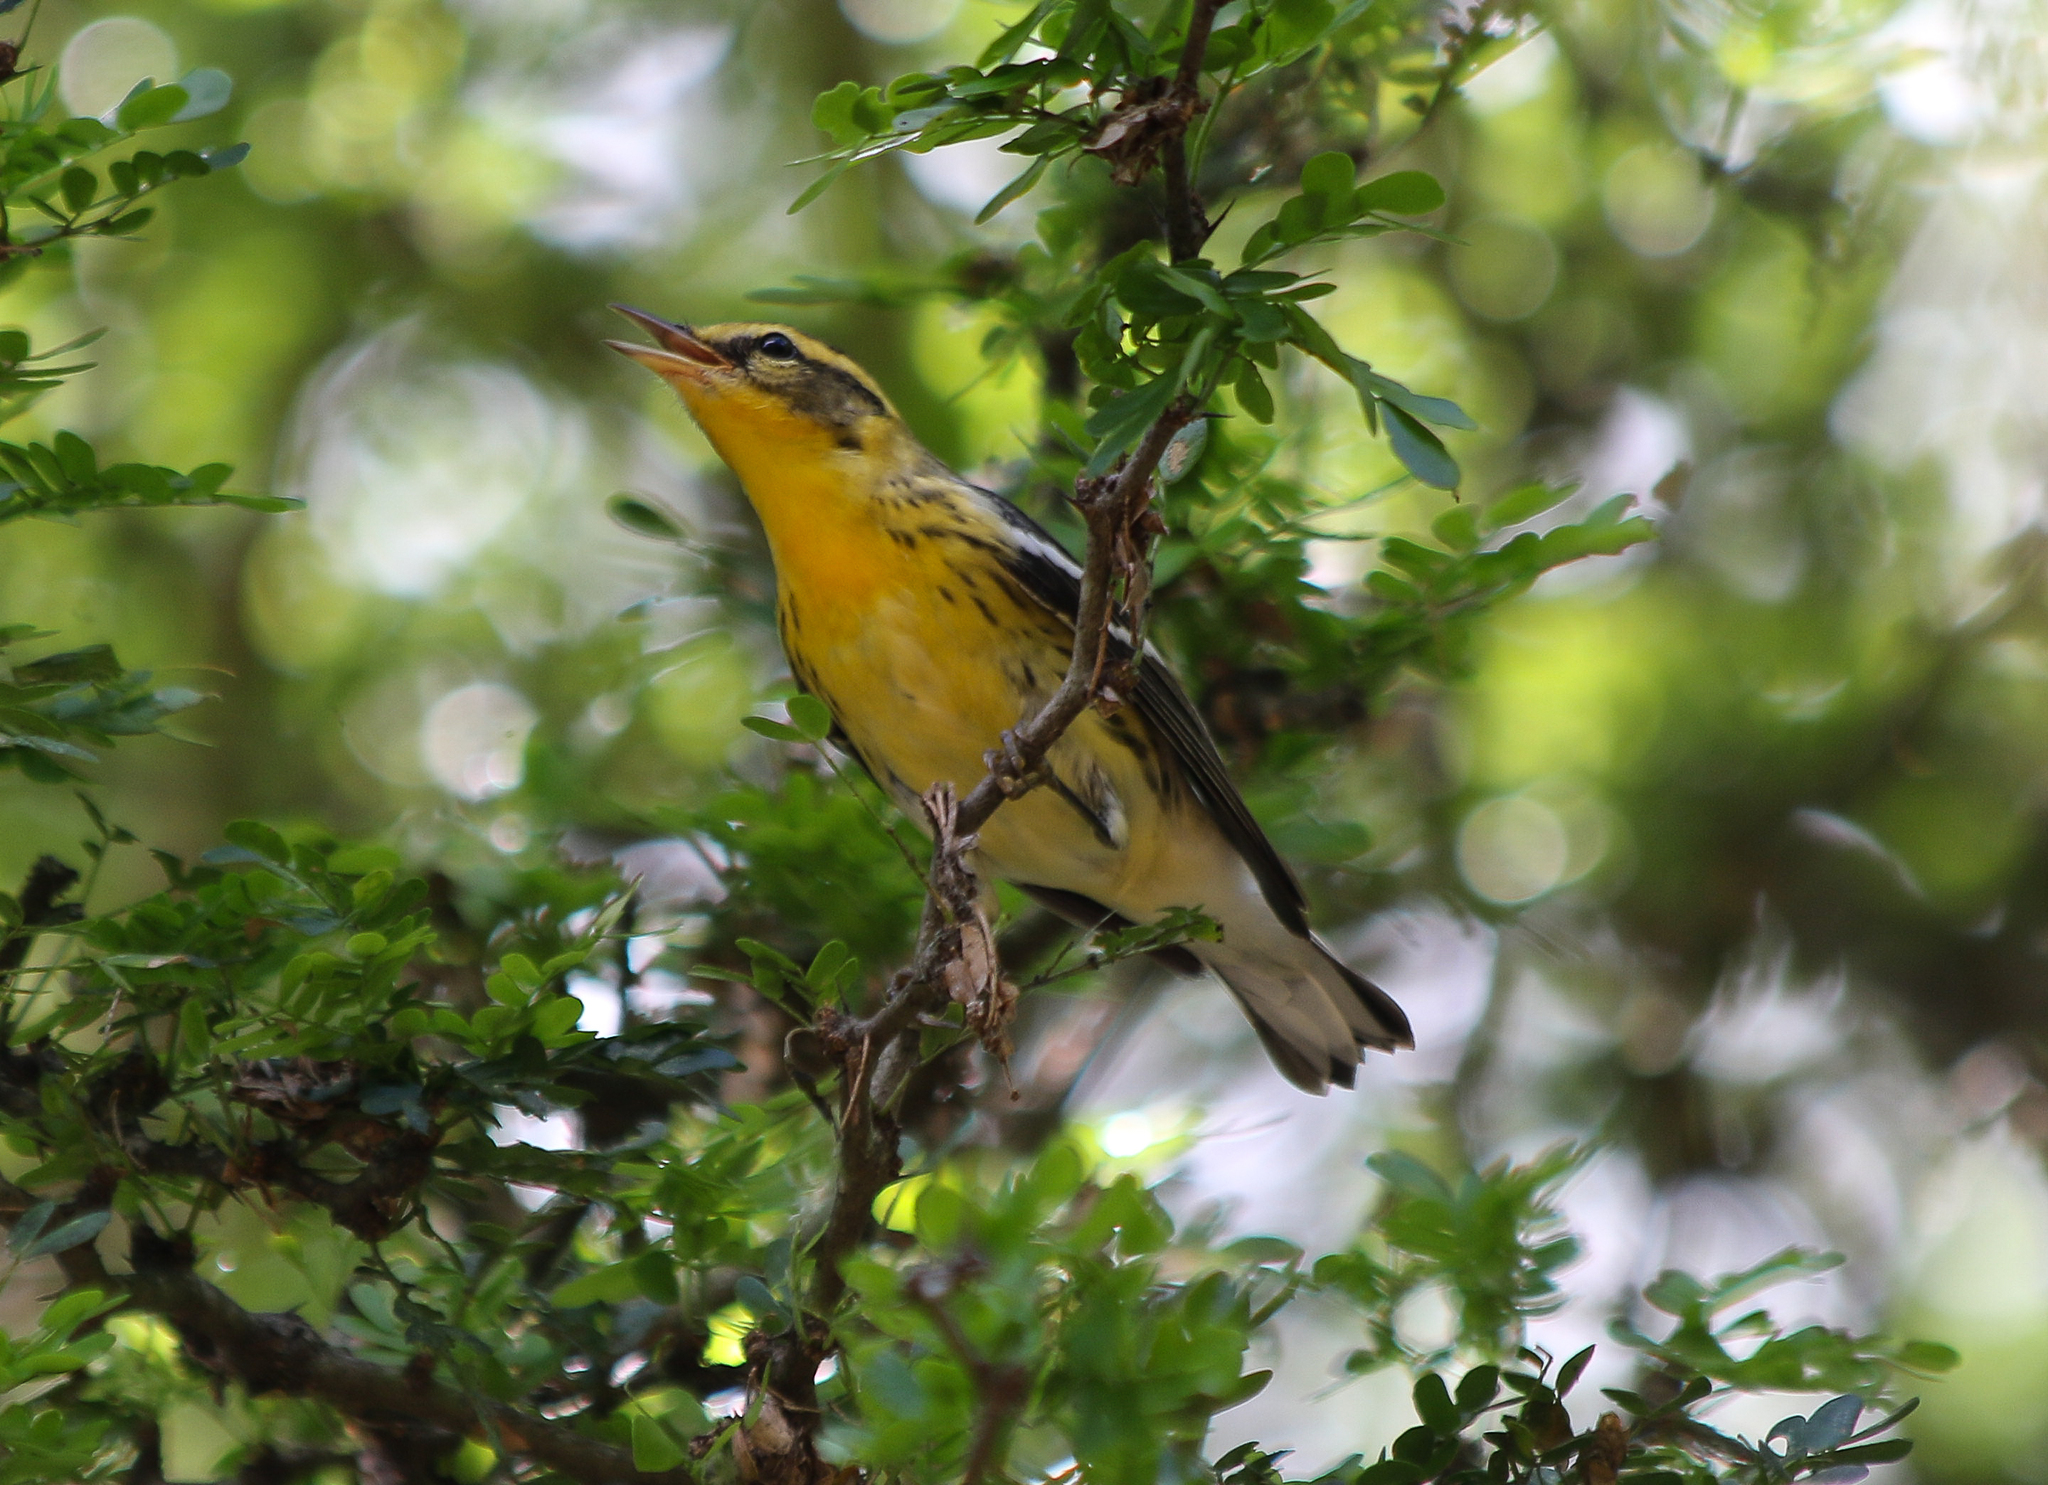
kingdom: Animalia
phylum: Chordata
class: Aves
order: Passeriformes
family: Parulidae
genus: Setophaga
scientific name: Setophaga fusca
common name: Blackburnian warbler
